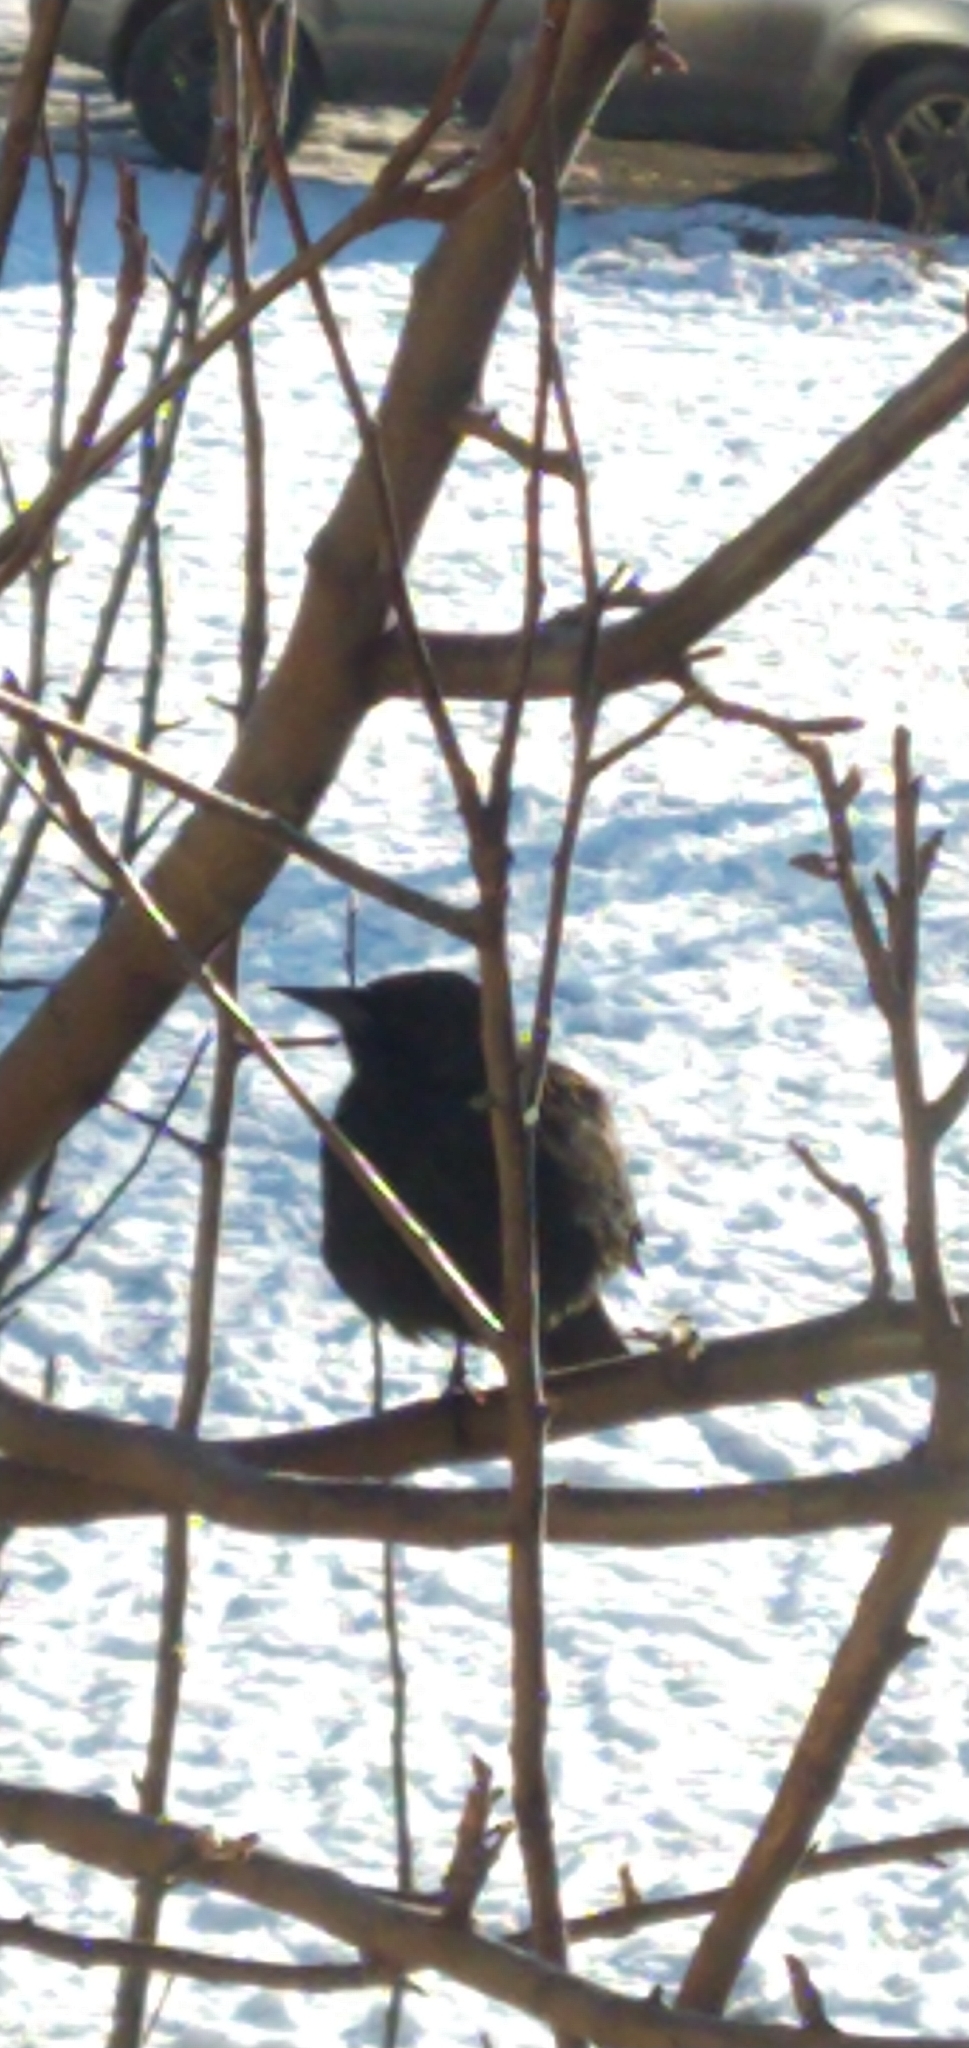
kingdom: Animalia
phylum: Chordata
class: Aves
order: Passeriformes
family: Icteridae
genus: Curaeus
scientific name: Curaeus curaeus
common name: Austral blackbird
